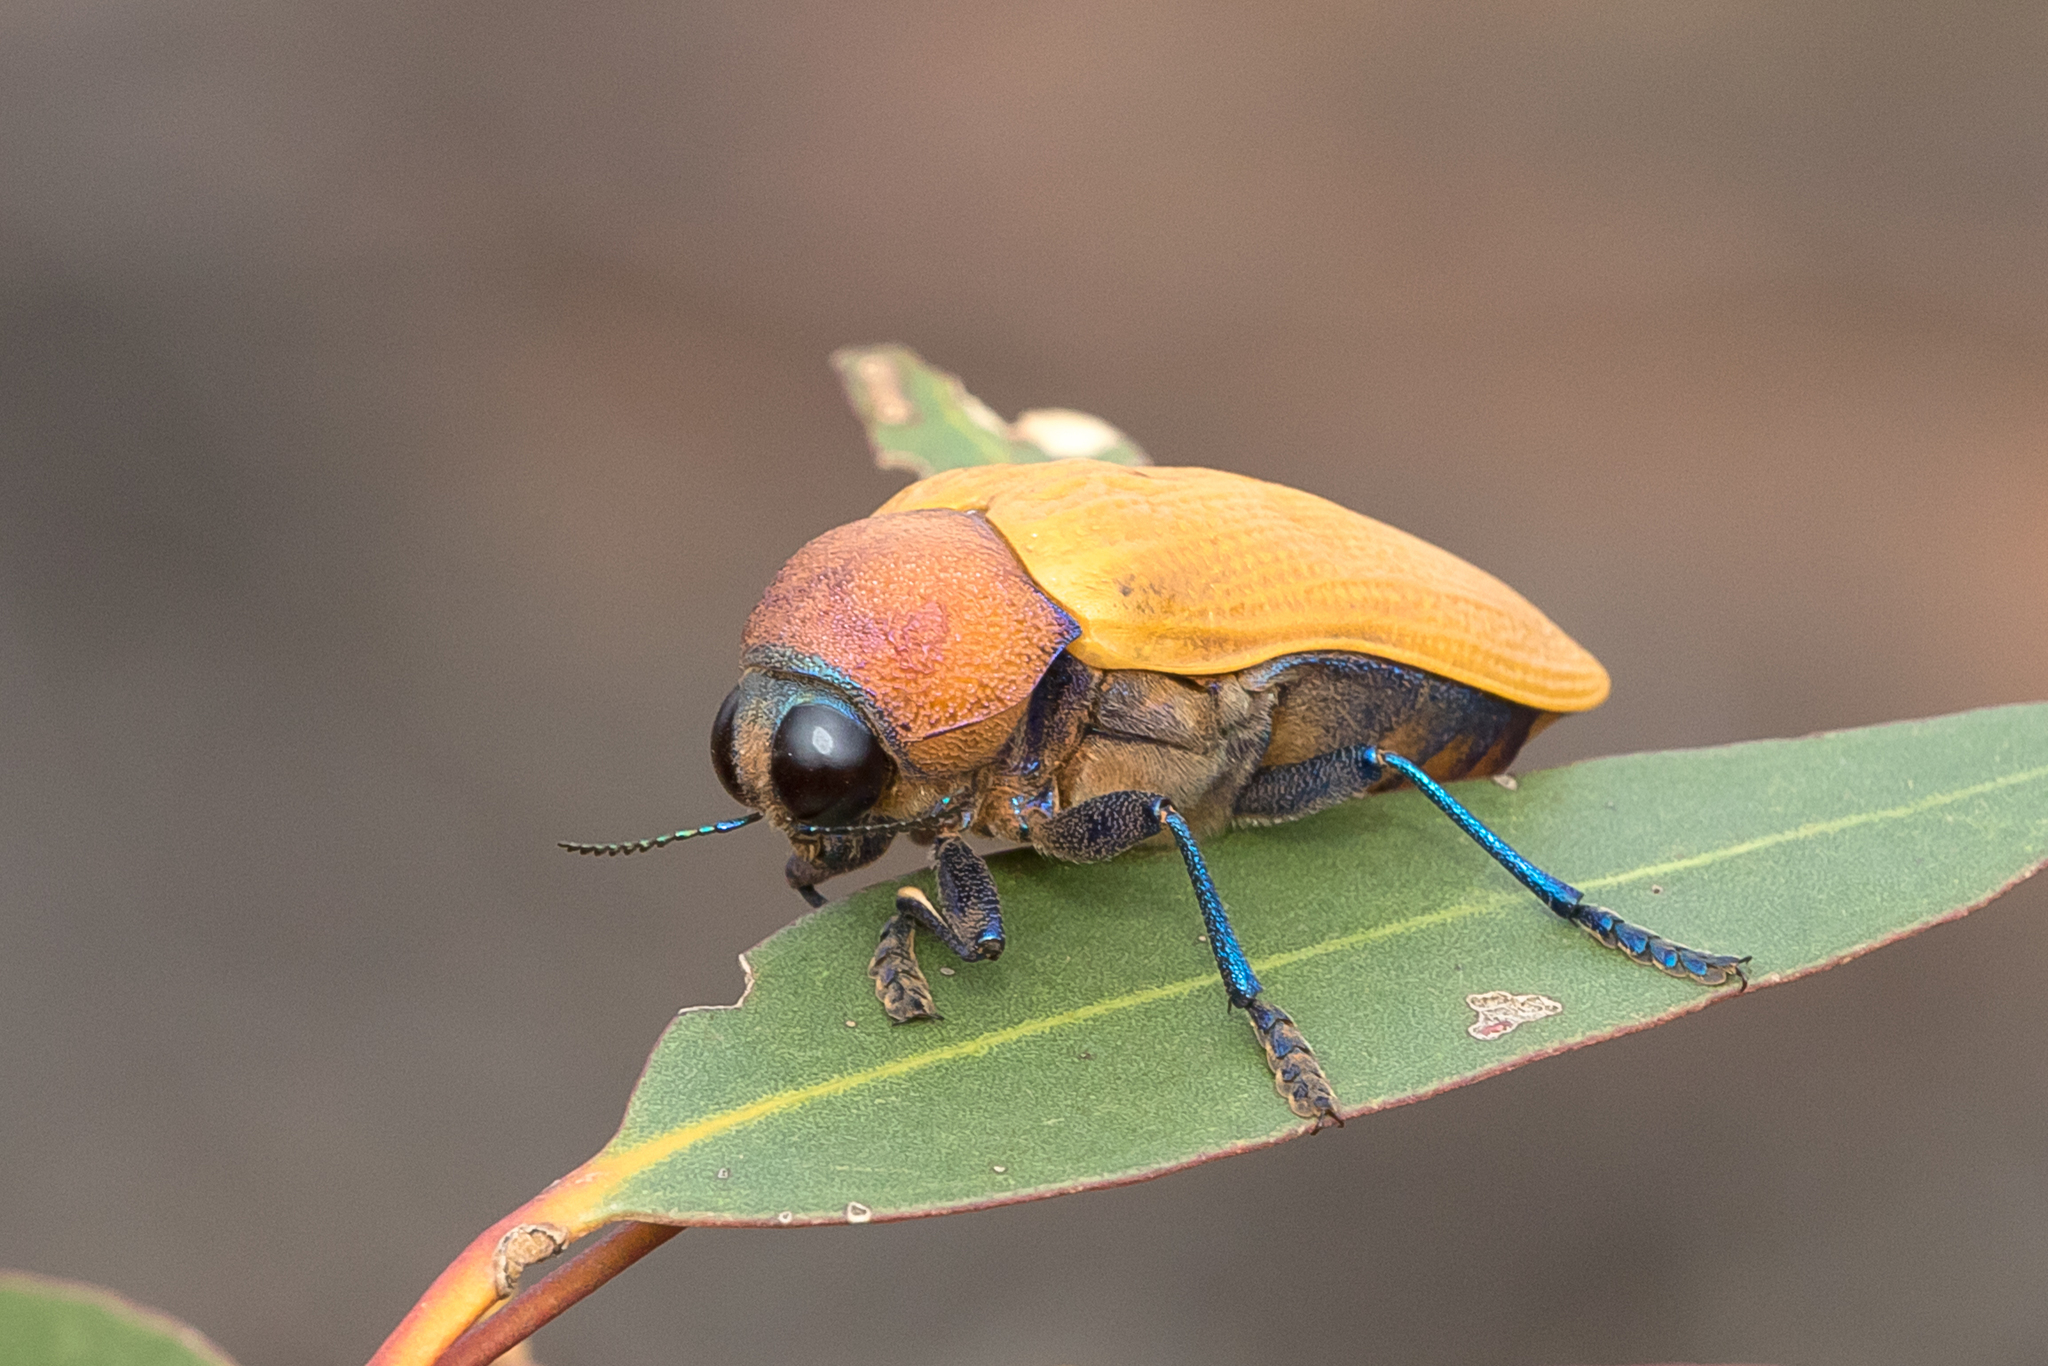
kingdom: Animalia
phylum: Arthropoda
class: Insecta
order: Coleoptera
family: Buprestidae
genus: Julodimorpha
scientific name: Julodimorpha bakewellii
